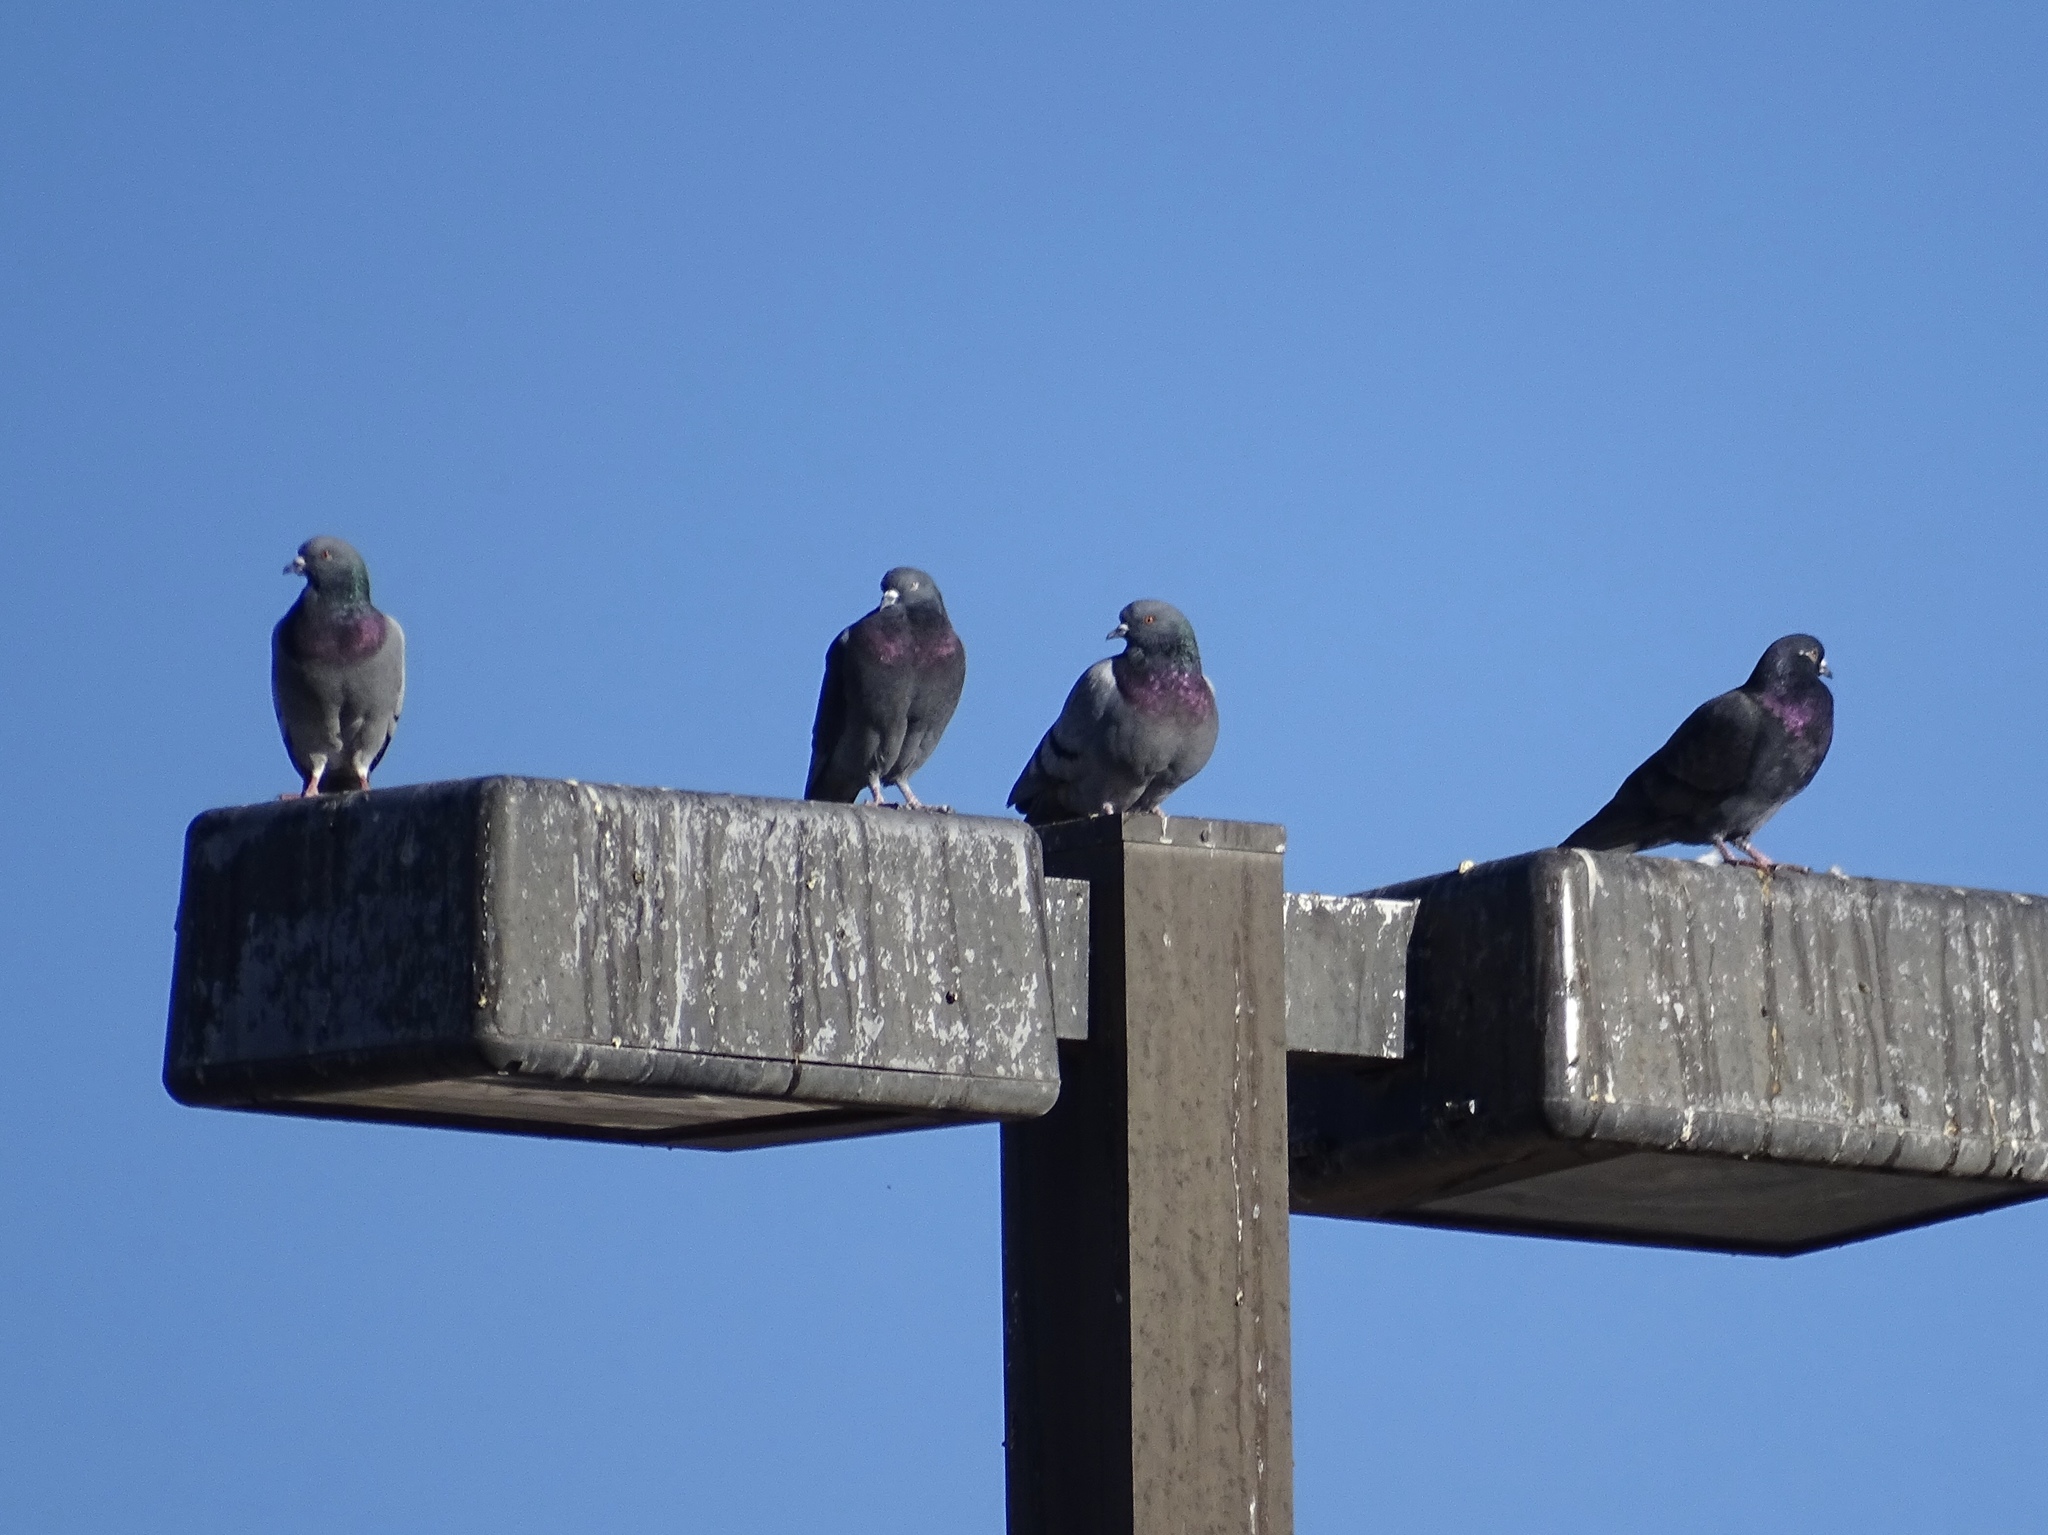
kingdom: Animalia
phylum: Chordata
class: Aves
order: Columbiformes
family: Columbidae
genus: Columba
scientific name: Columba livia
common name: Rock pigeon
